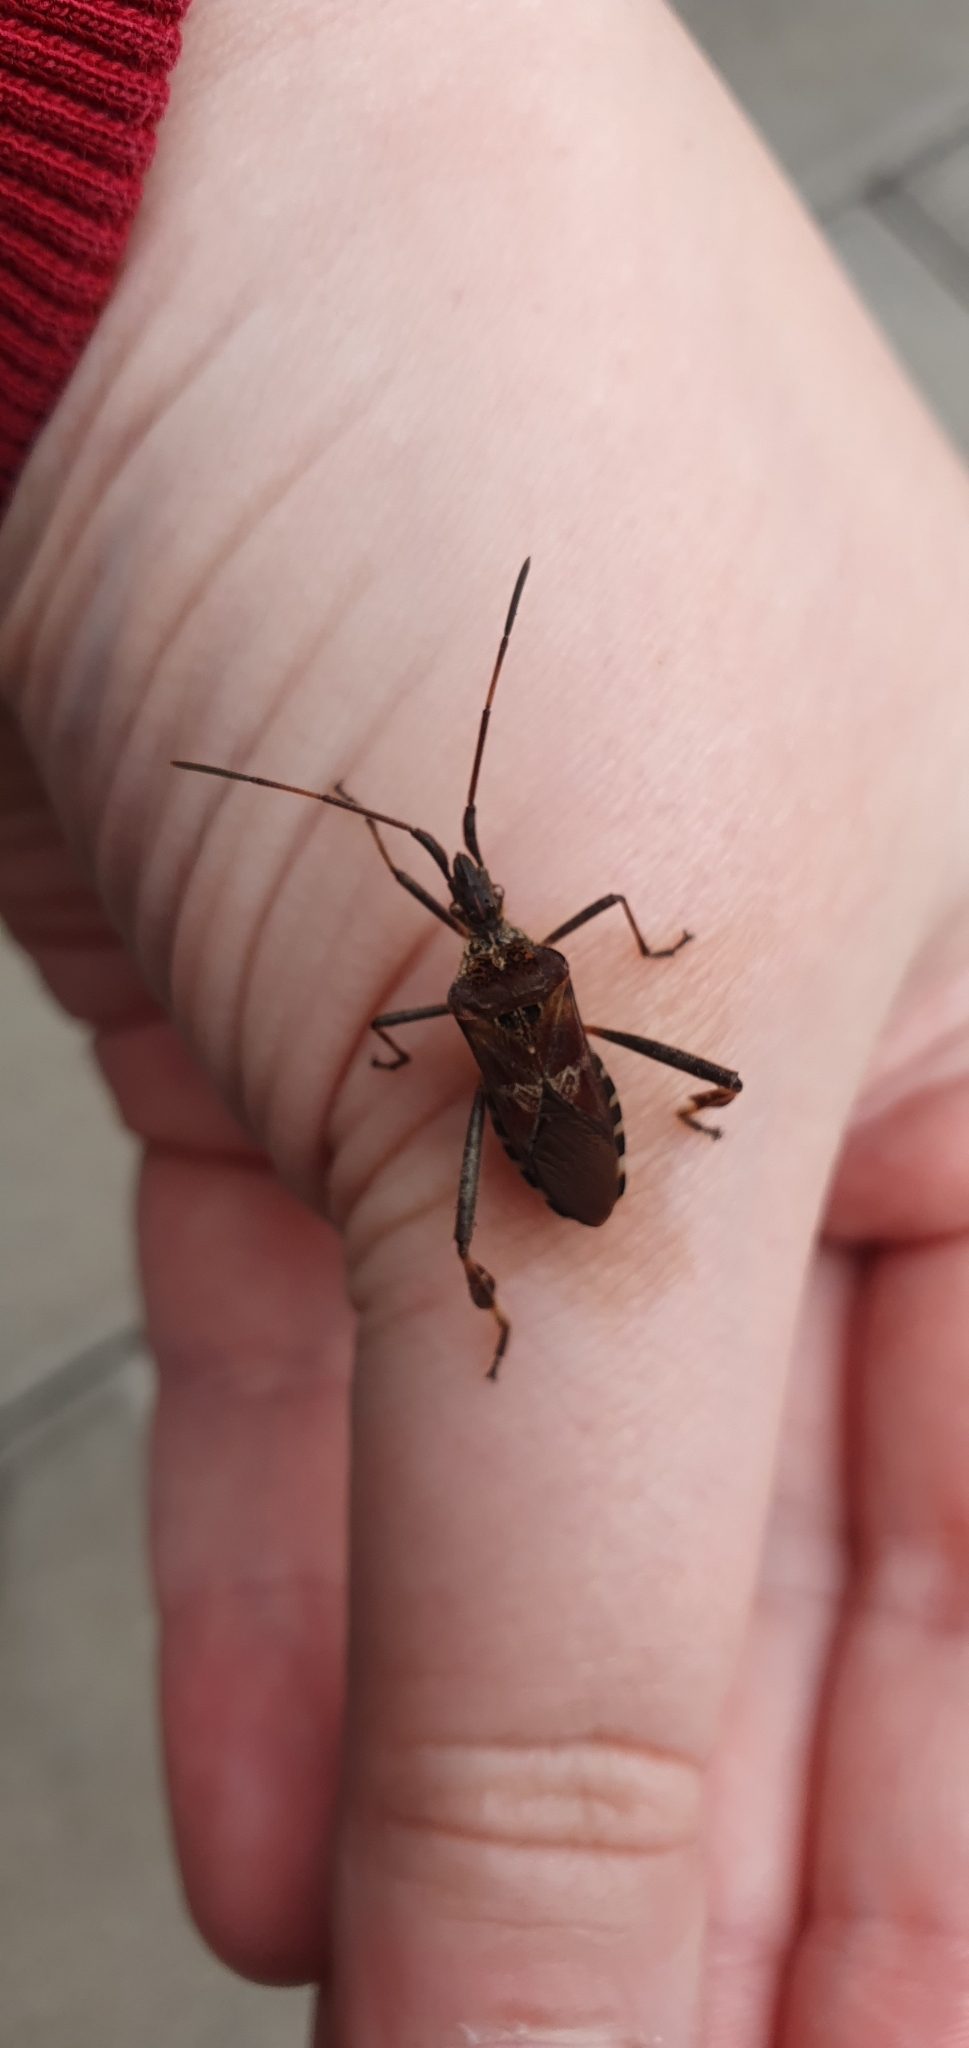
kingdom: Animalia
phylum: Arthropoda
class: Insecta
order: Hemiptera
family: Coreidae
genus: Leptoglossus
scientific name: Leptoglossus occidentalis
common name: Western conifer-seed bug
